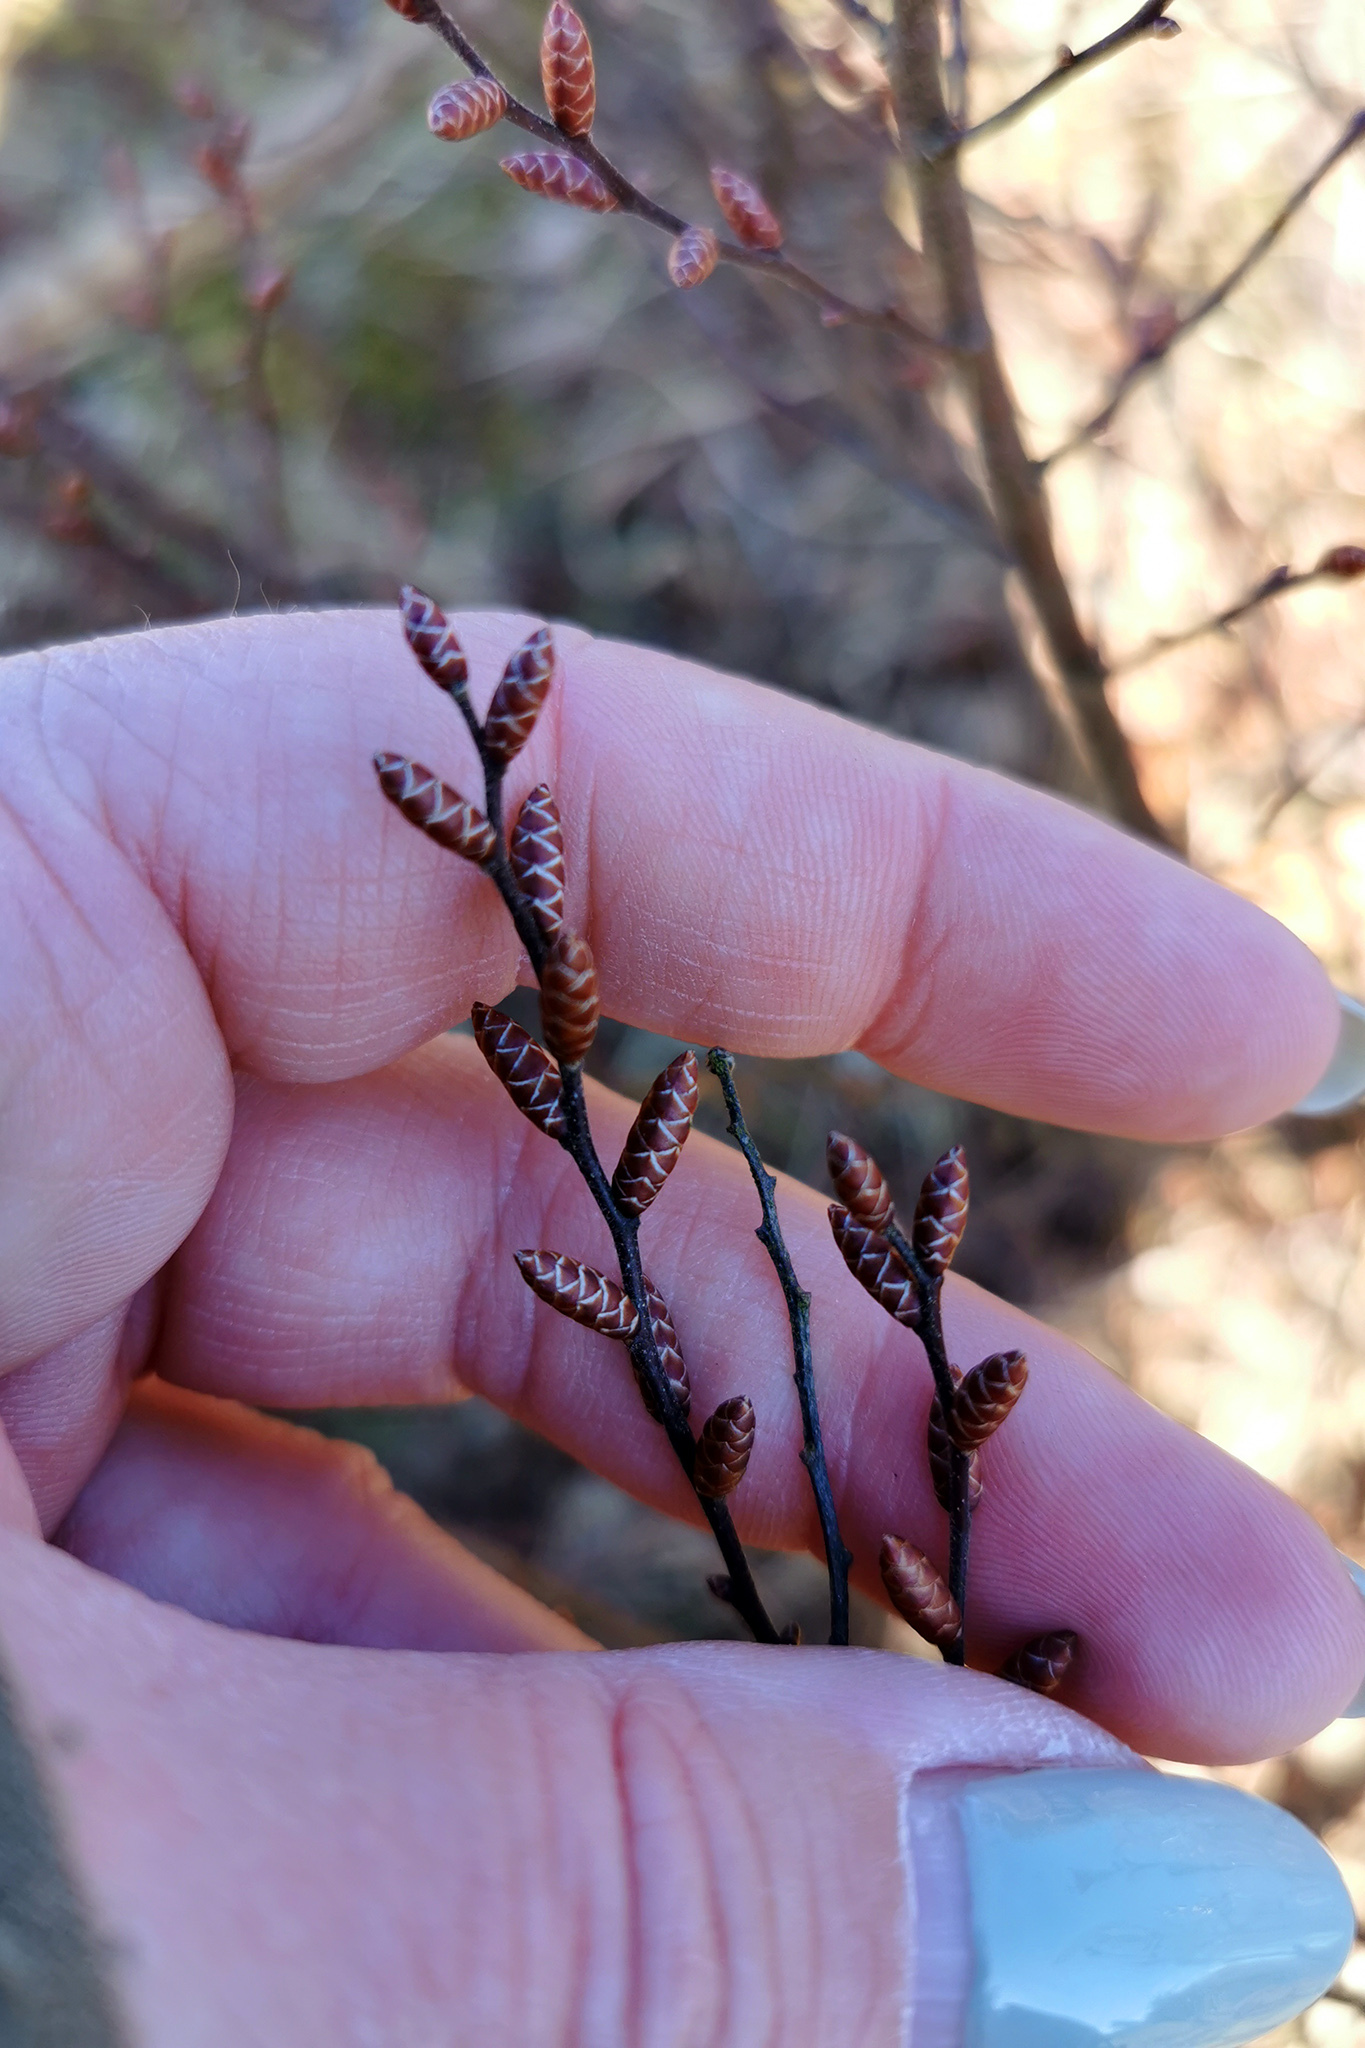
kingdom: Plantae
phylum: Tracheophyta
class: Magnoliopsida
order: Fagales
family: Myricaceae
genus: Myrica
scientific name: Myrica gale
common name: Sweet gale
